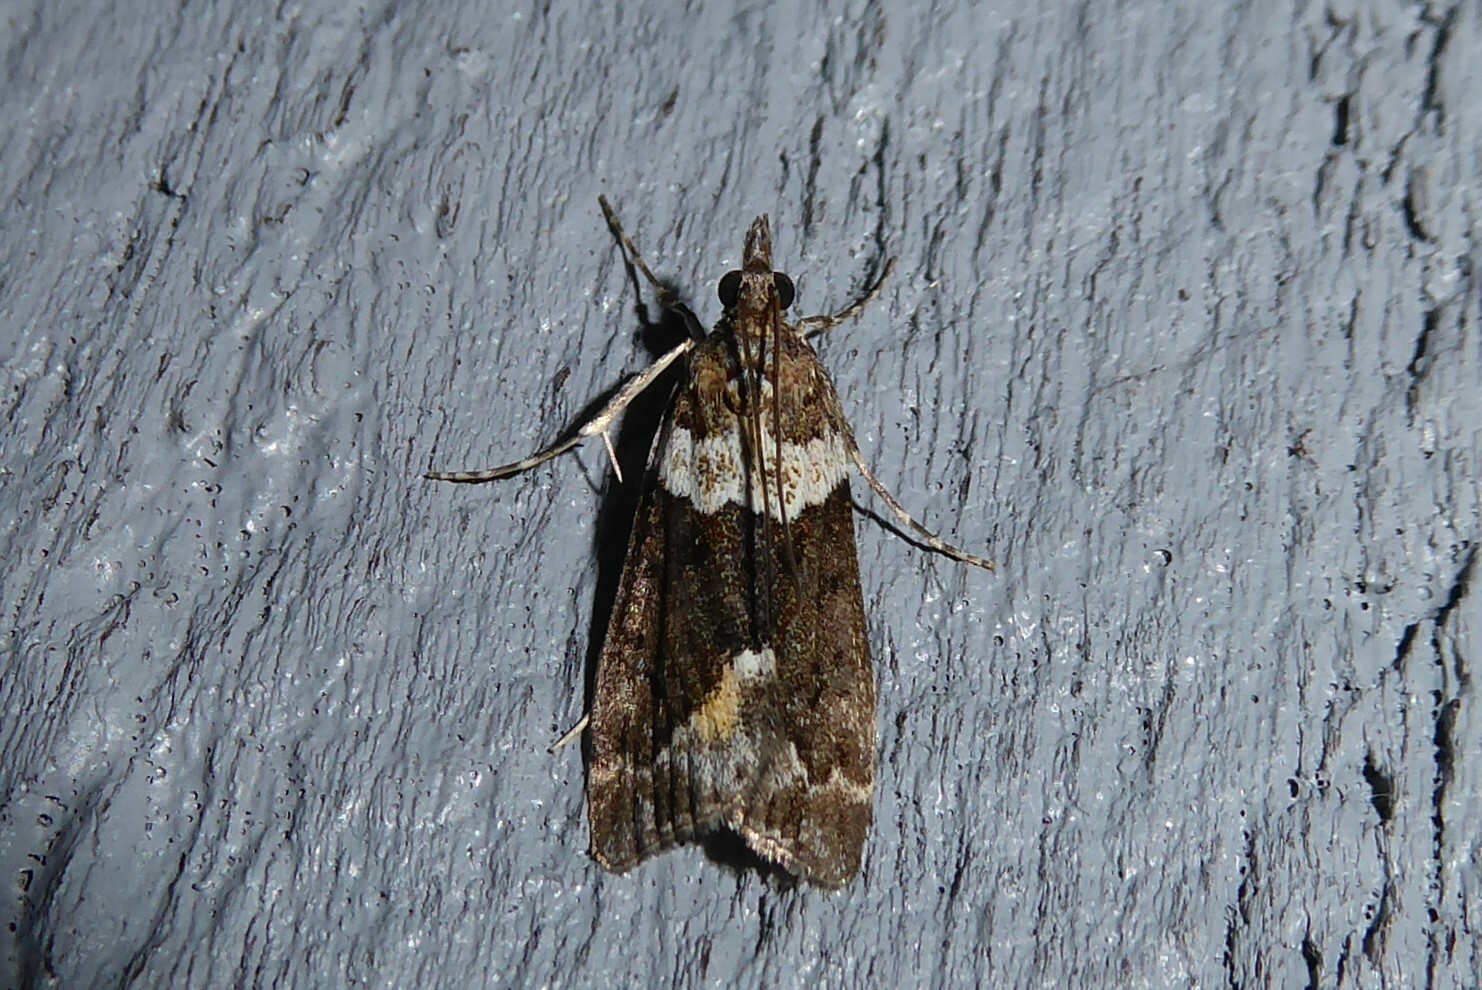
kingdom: Animalia
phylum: Arthropoda
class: Insecta
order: Lepidoptera
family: Crambidae
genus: Eudonia
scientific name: Eudonia submarginalis
